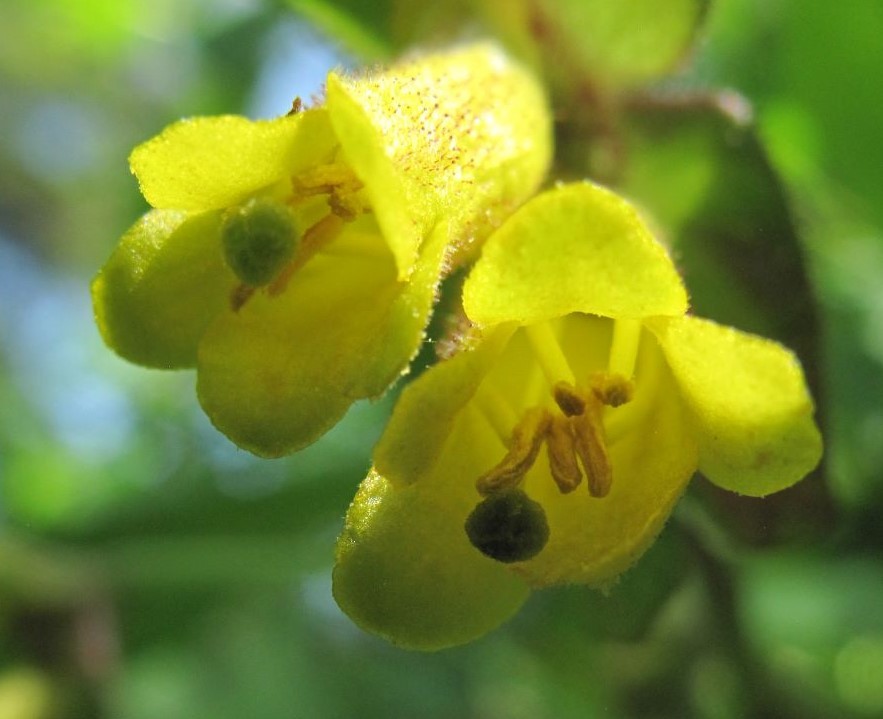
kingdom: Plantae
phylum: Tracheophyta
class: Magnoliopsida
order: Dipsacales
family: Caprifoliaceae
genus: Lonicera
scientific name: Lonicera involucrata
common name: Californian honeysuckle
